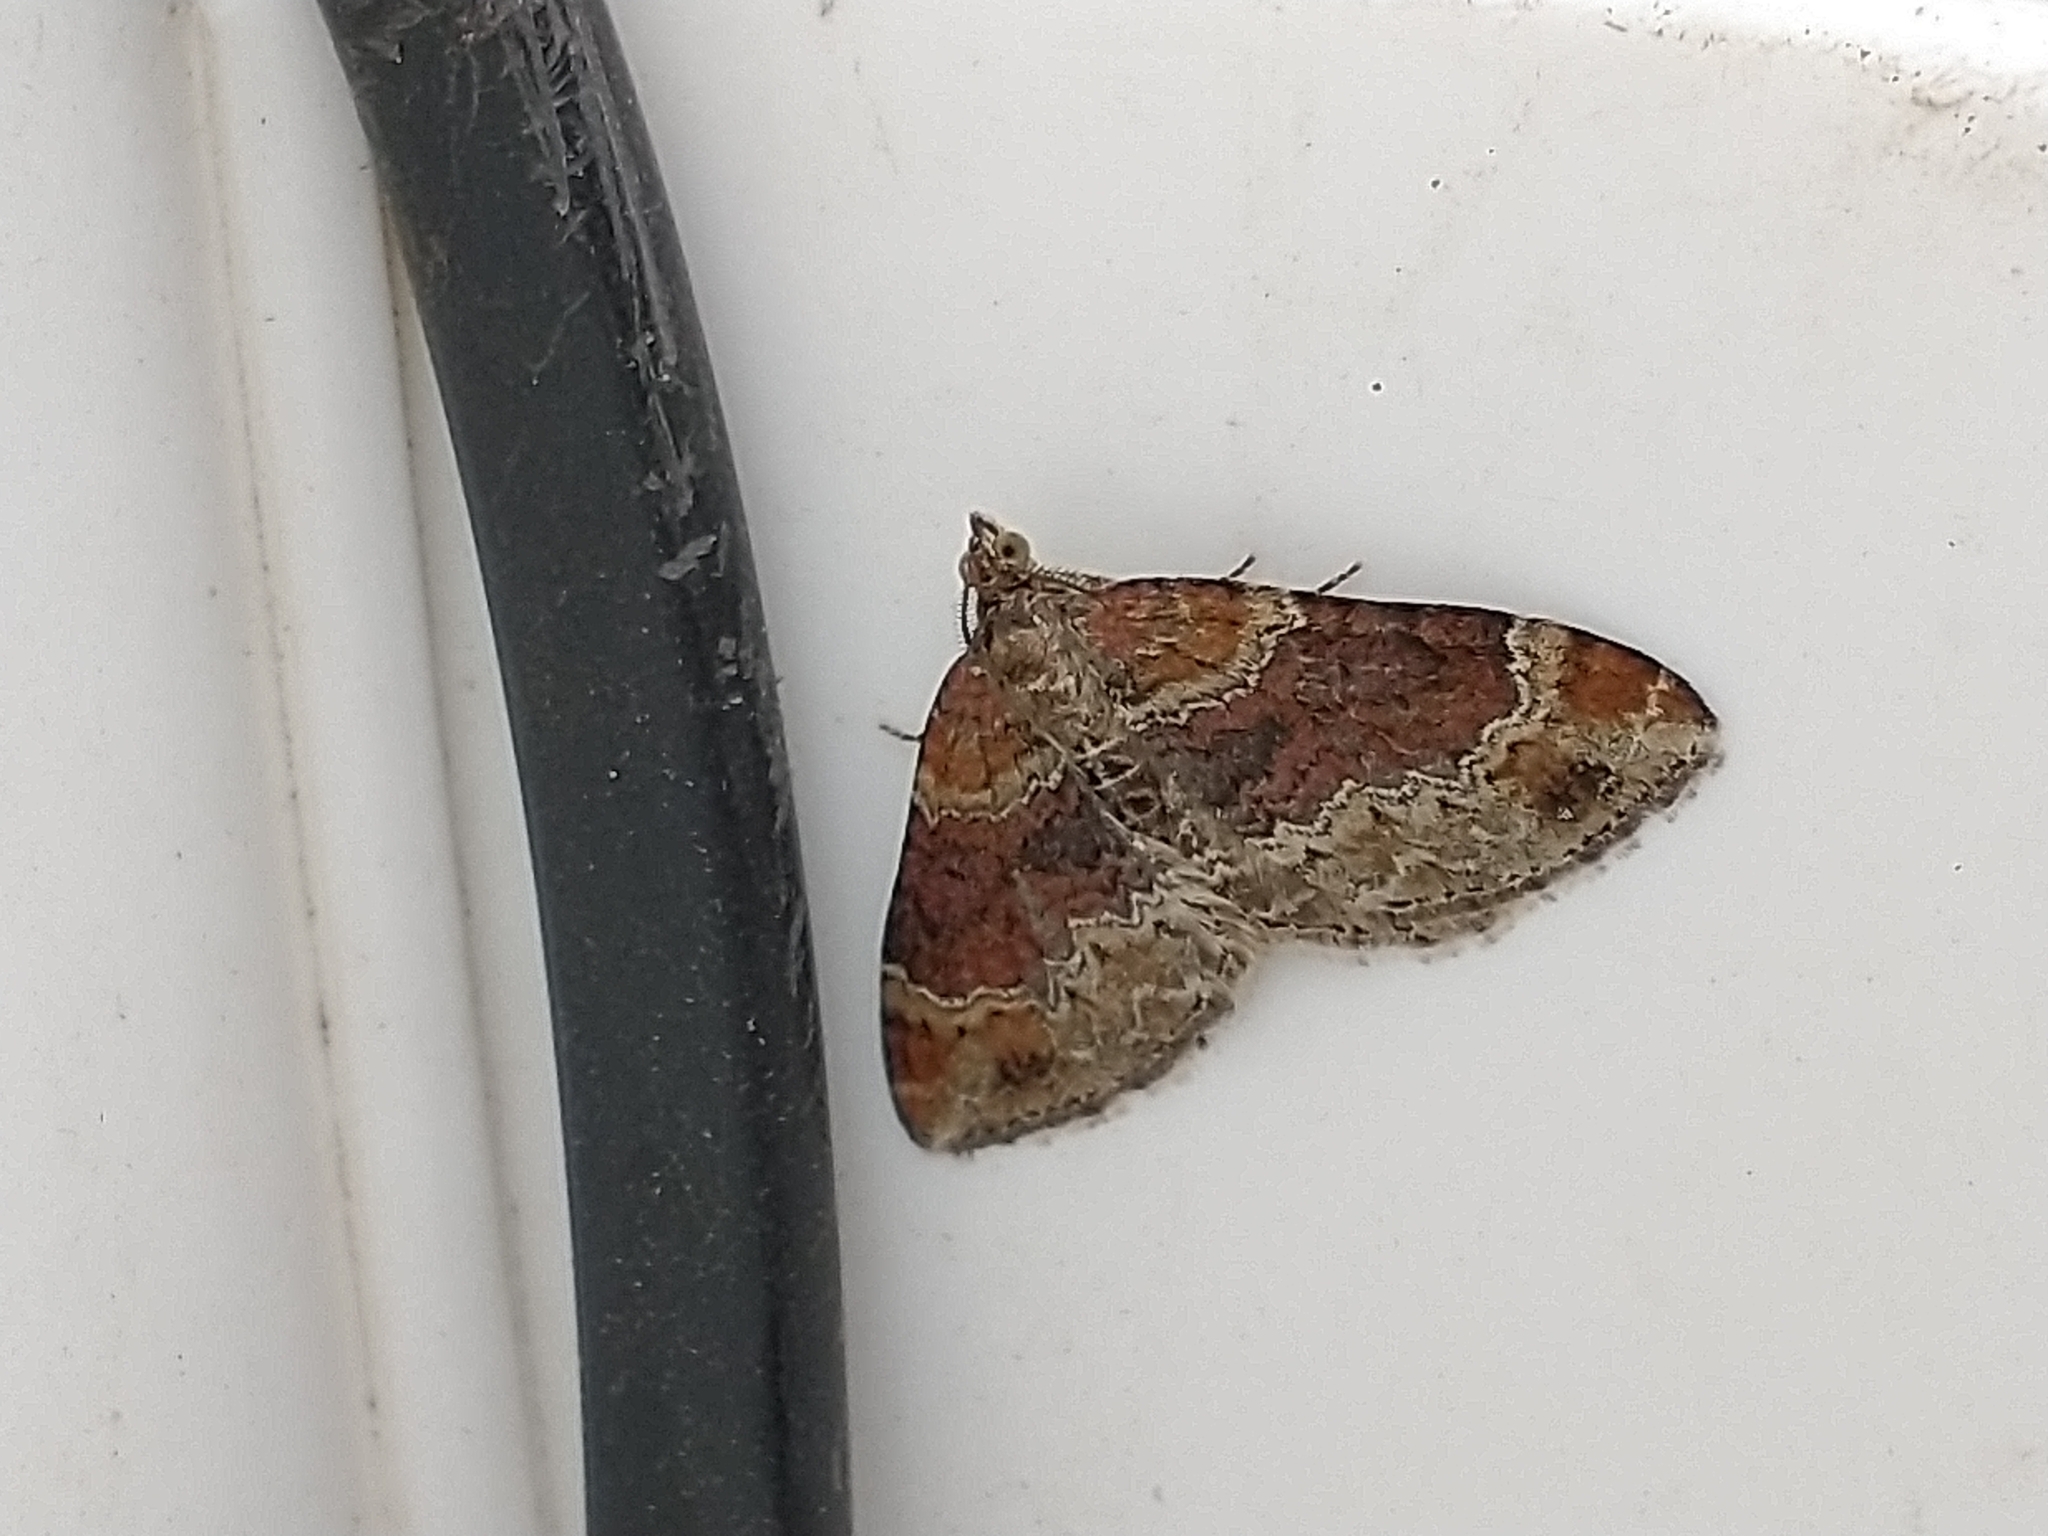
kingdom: Animalia
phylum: Arthropoda
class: Insecta
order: Lepidoptera
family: Geometridae
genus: Xanthorhoe
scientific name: Xanthorhoe spadicearia
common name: Red twin-spot carpet
